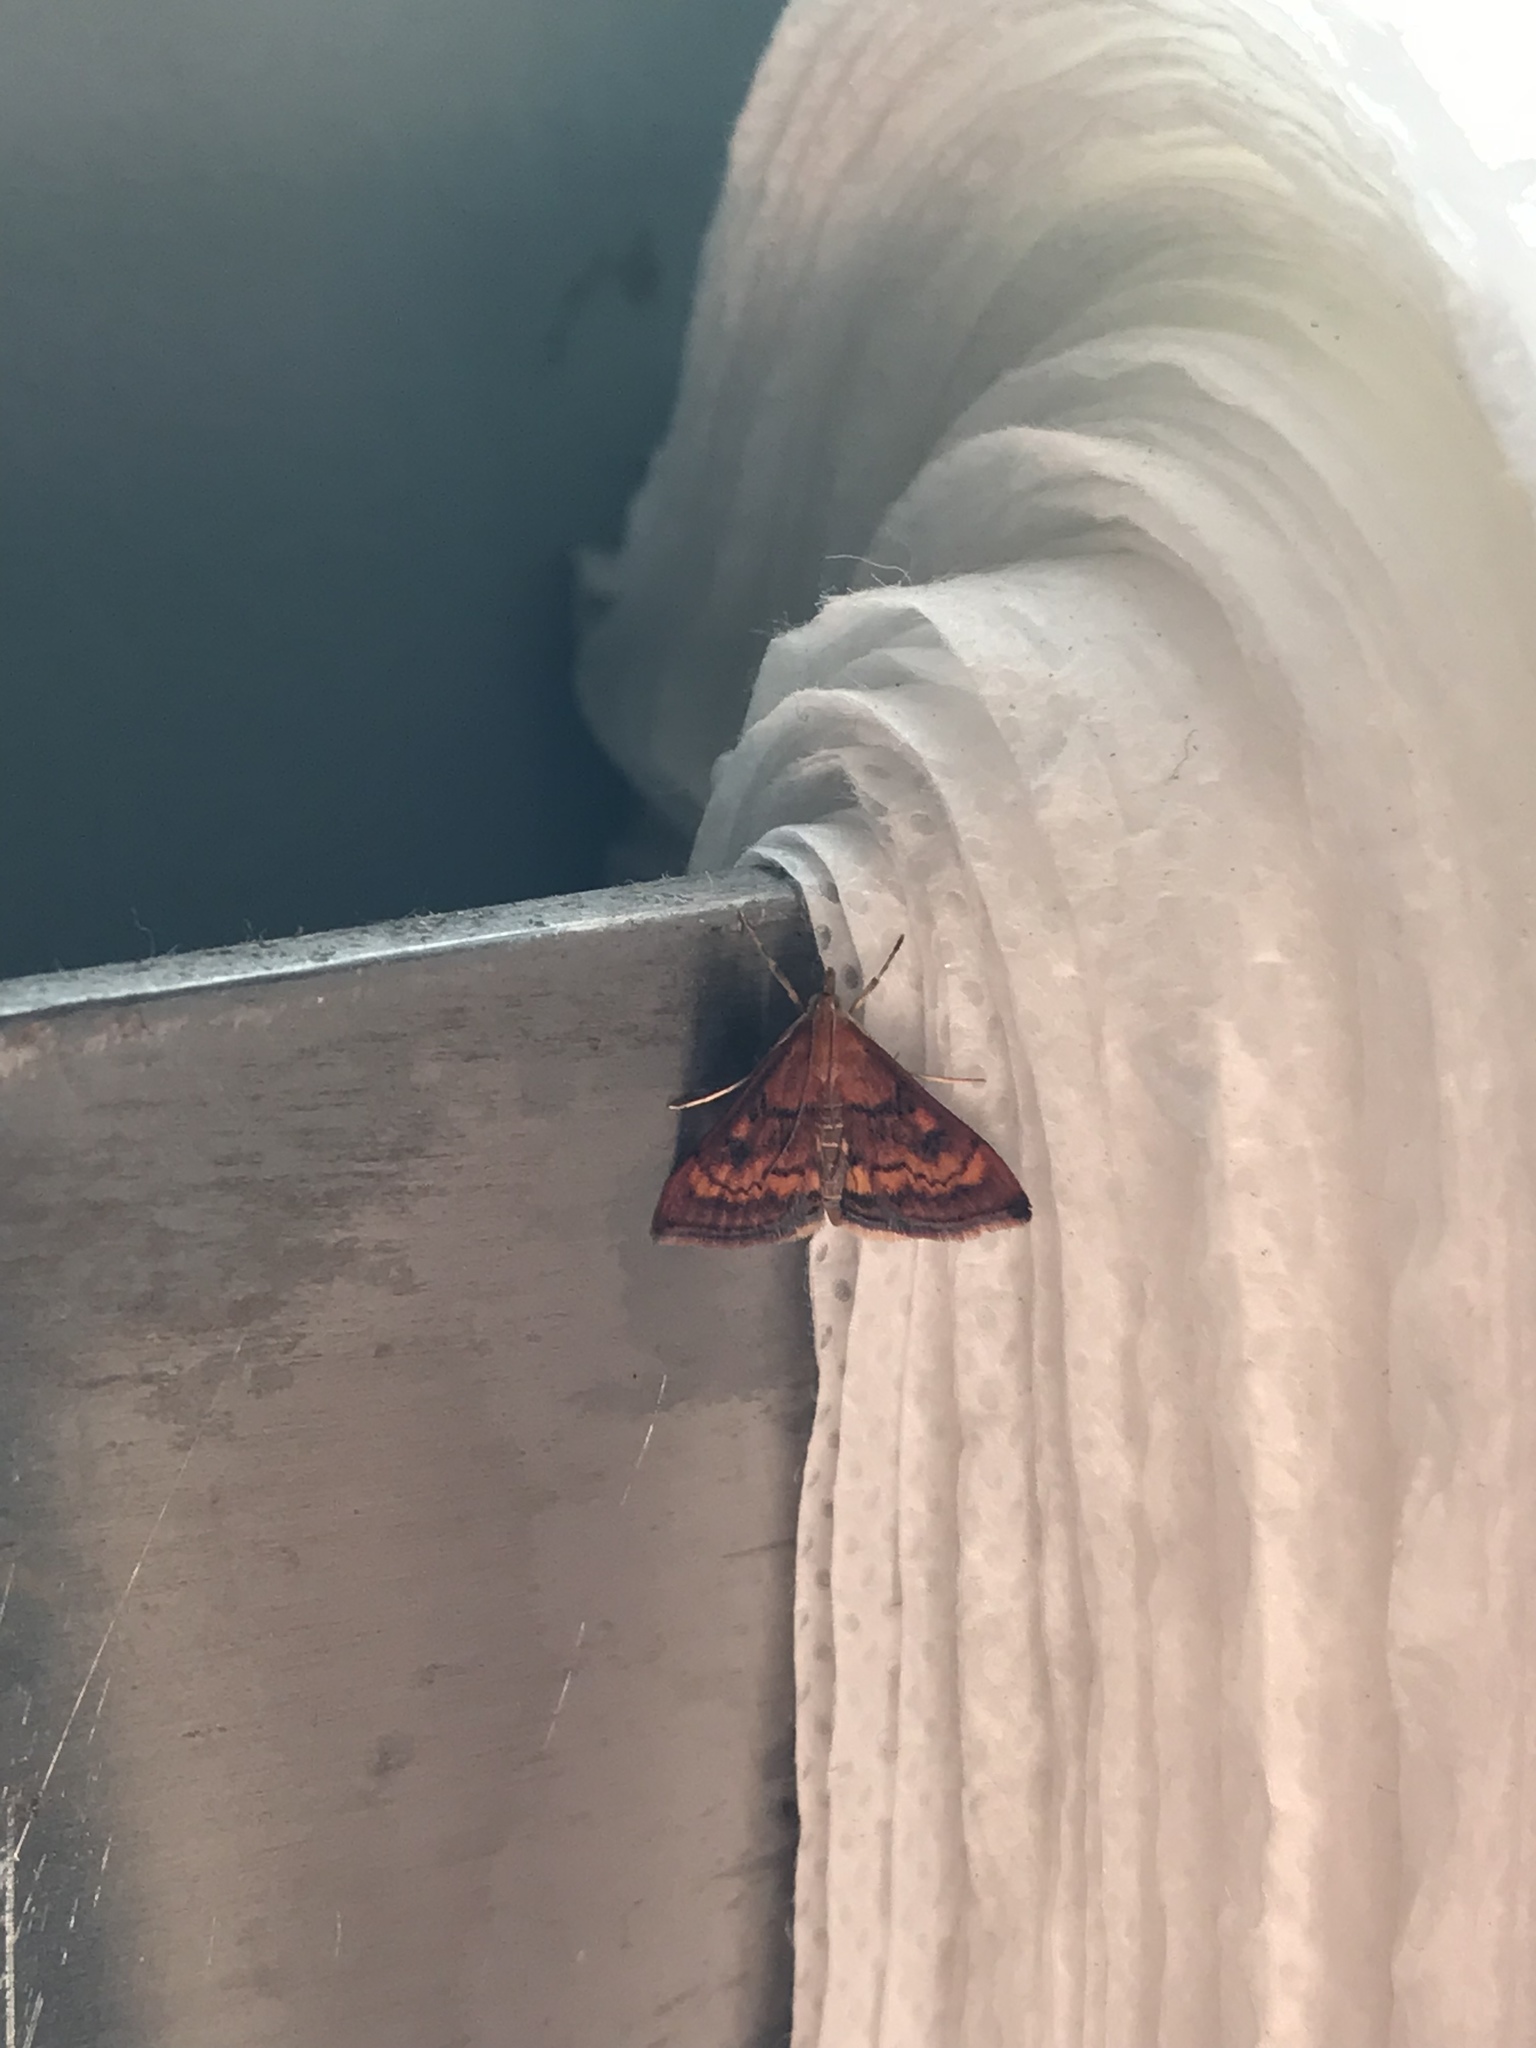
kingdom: Animalia
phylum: Arthropoda
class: Insecta
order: Lepidoptera
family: Crambidae
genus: Pyrausta
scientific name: Pyrausta californicalis
